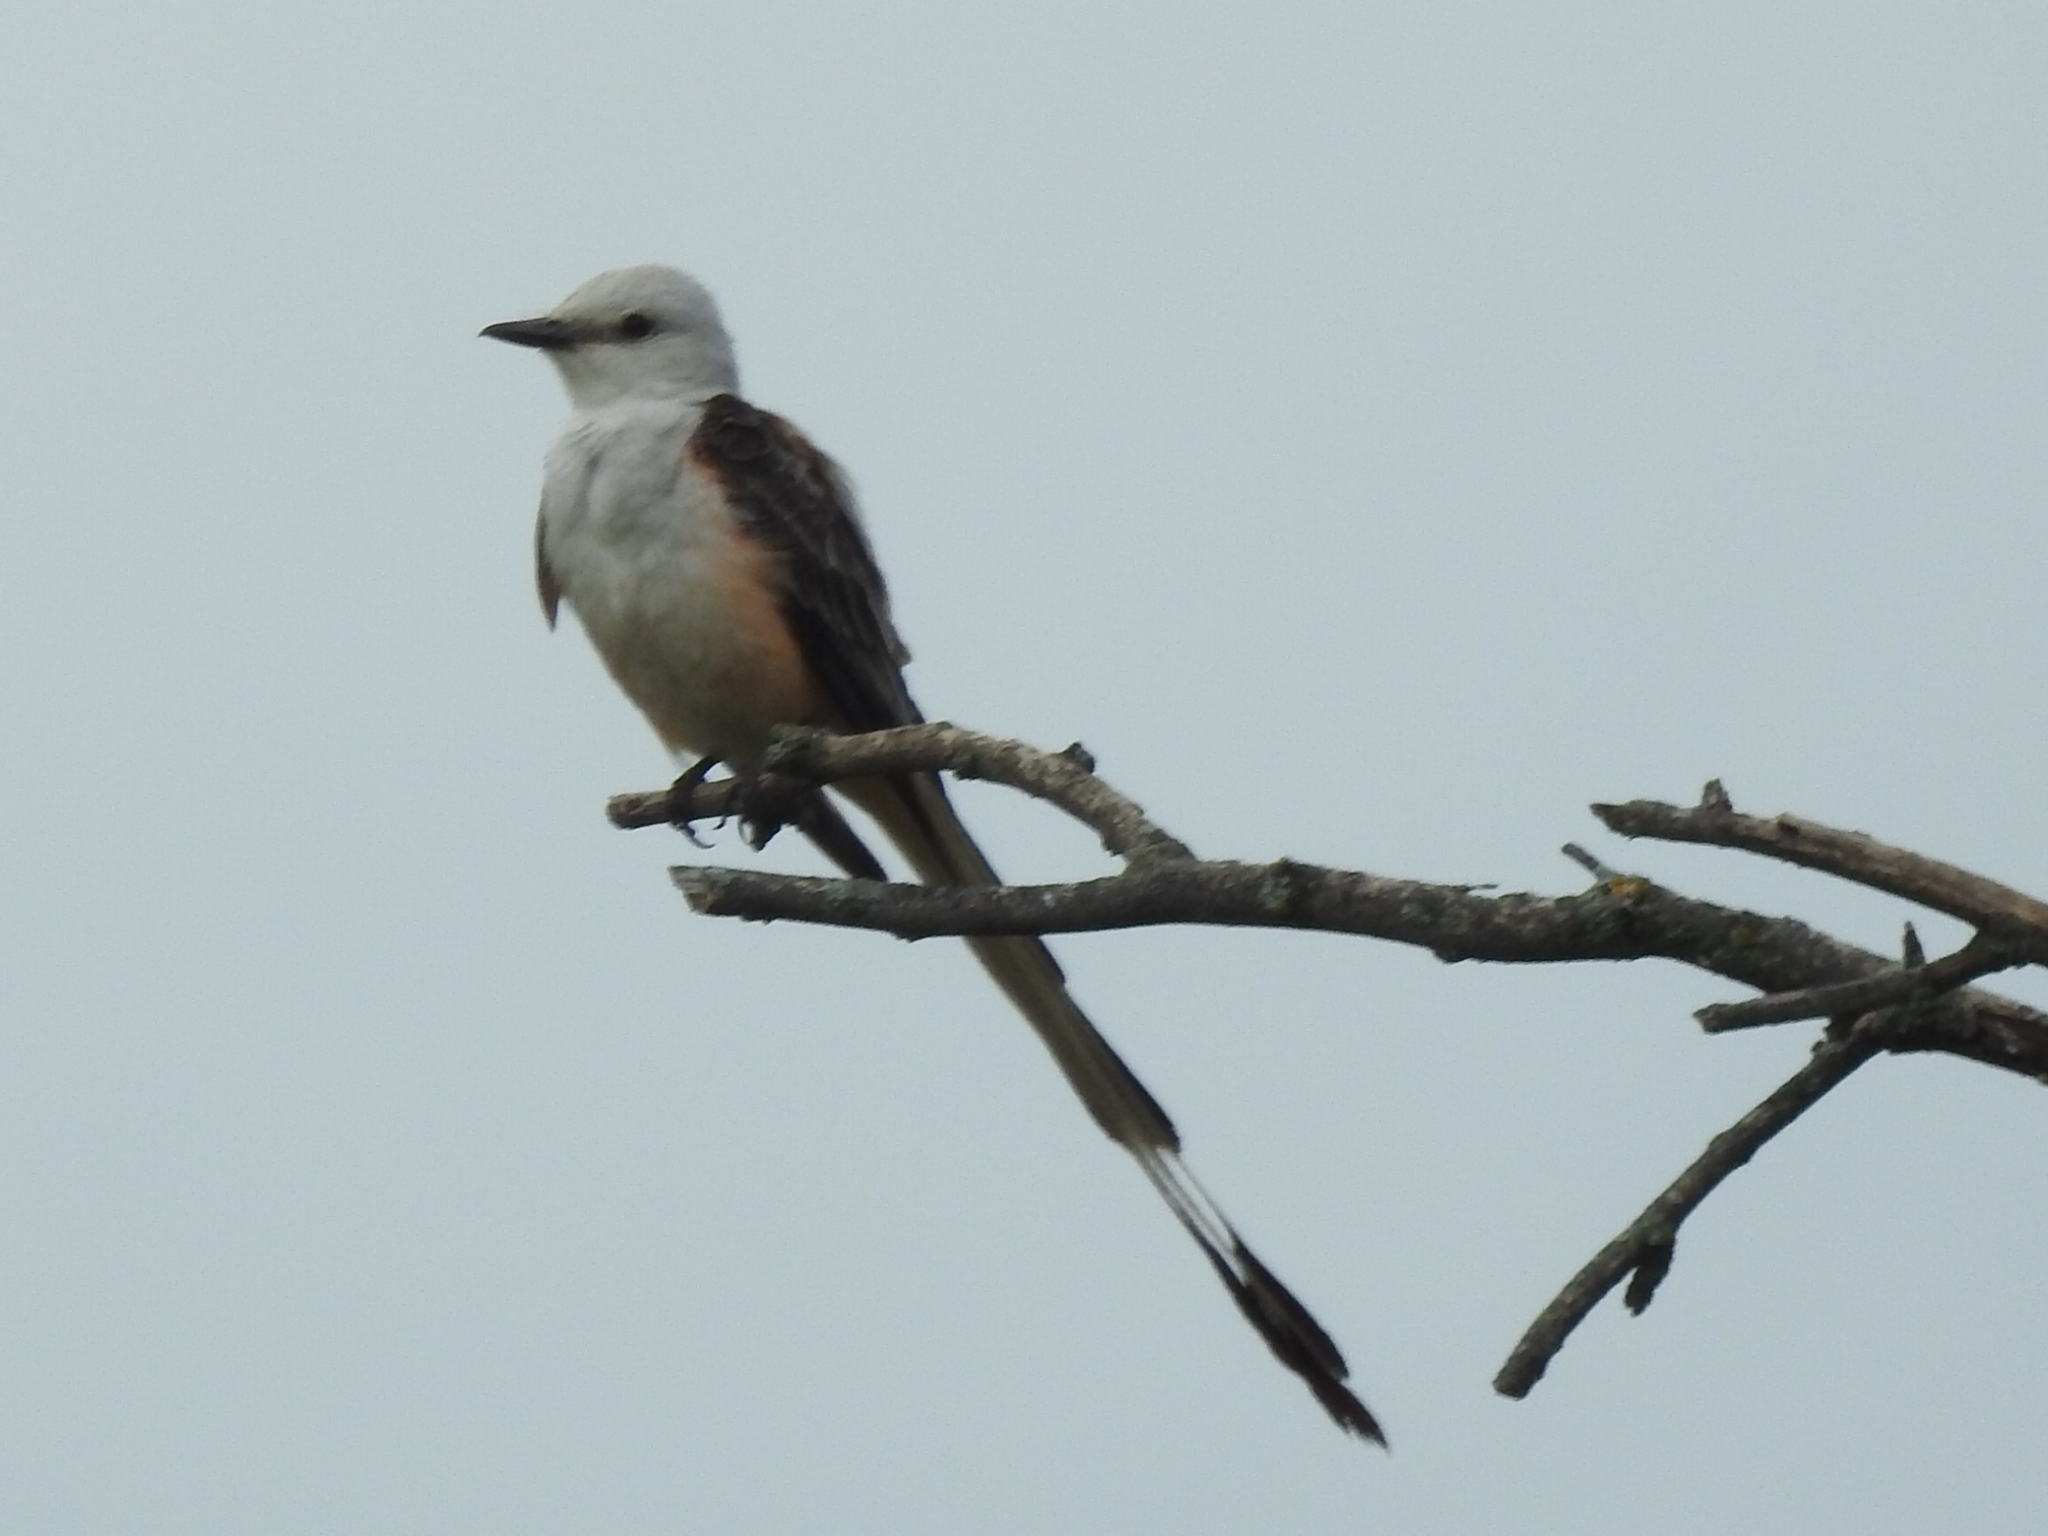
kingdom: Animalia
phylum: Chordata
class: Aves
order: Passeriformes
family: Tyrannidae
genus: Tyrannus
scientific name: Tyrannus forficatus
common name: Scissor-tailed flycatcher
